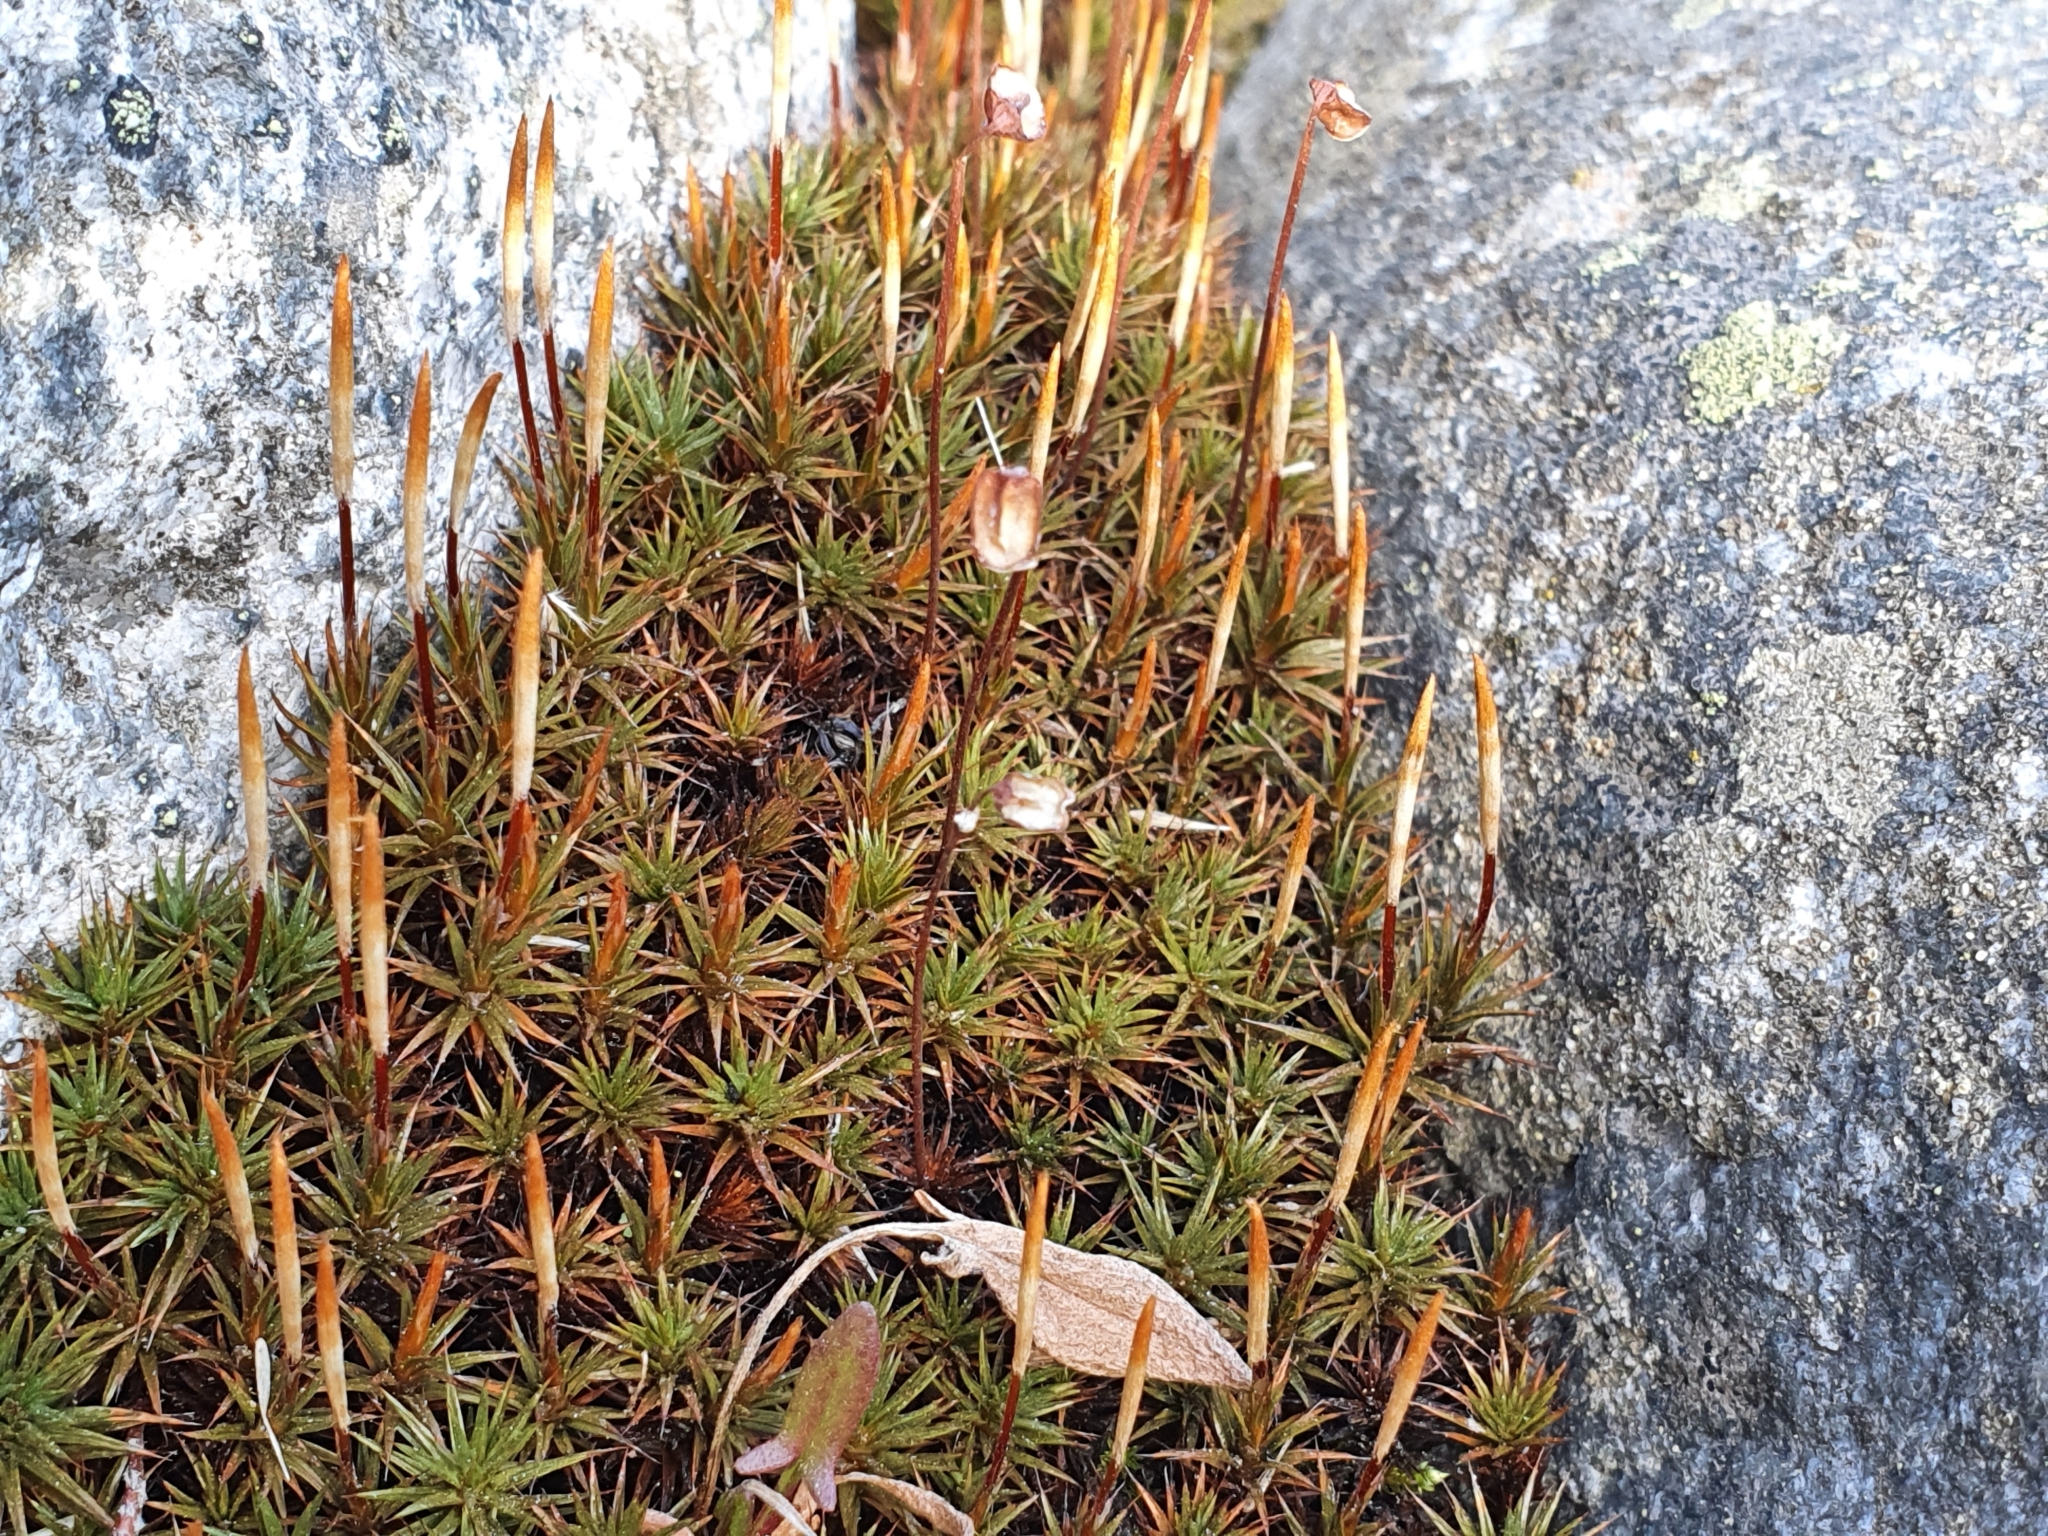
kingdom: Plantae
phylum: Bryophyta
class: Polytrichopsida
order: Polytrichales
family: Polytrichaceae
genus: Polytrichum
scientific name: Polytrichum juniperinum
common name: Juniper haircap moss
